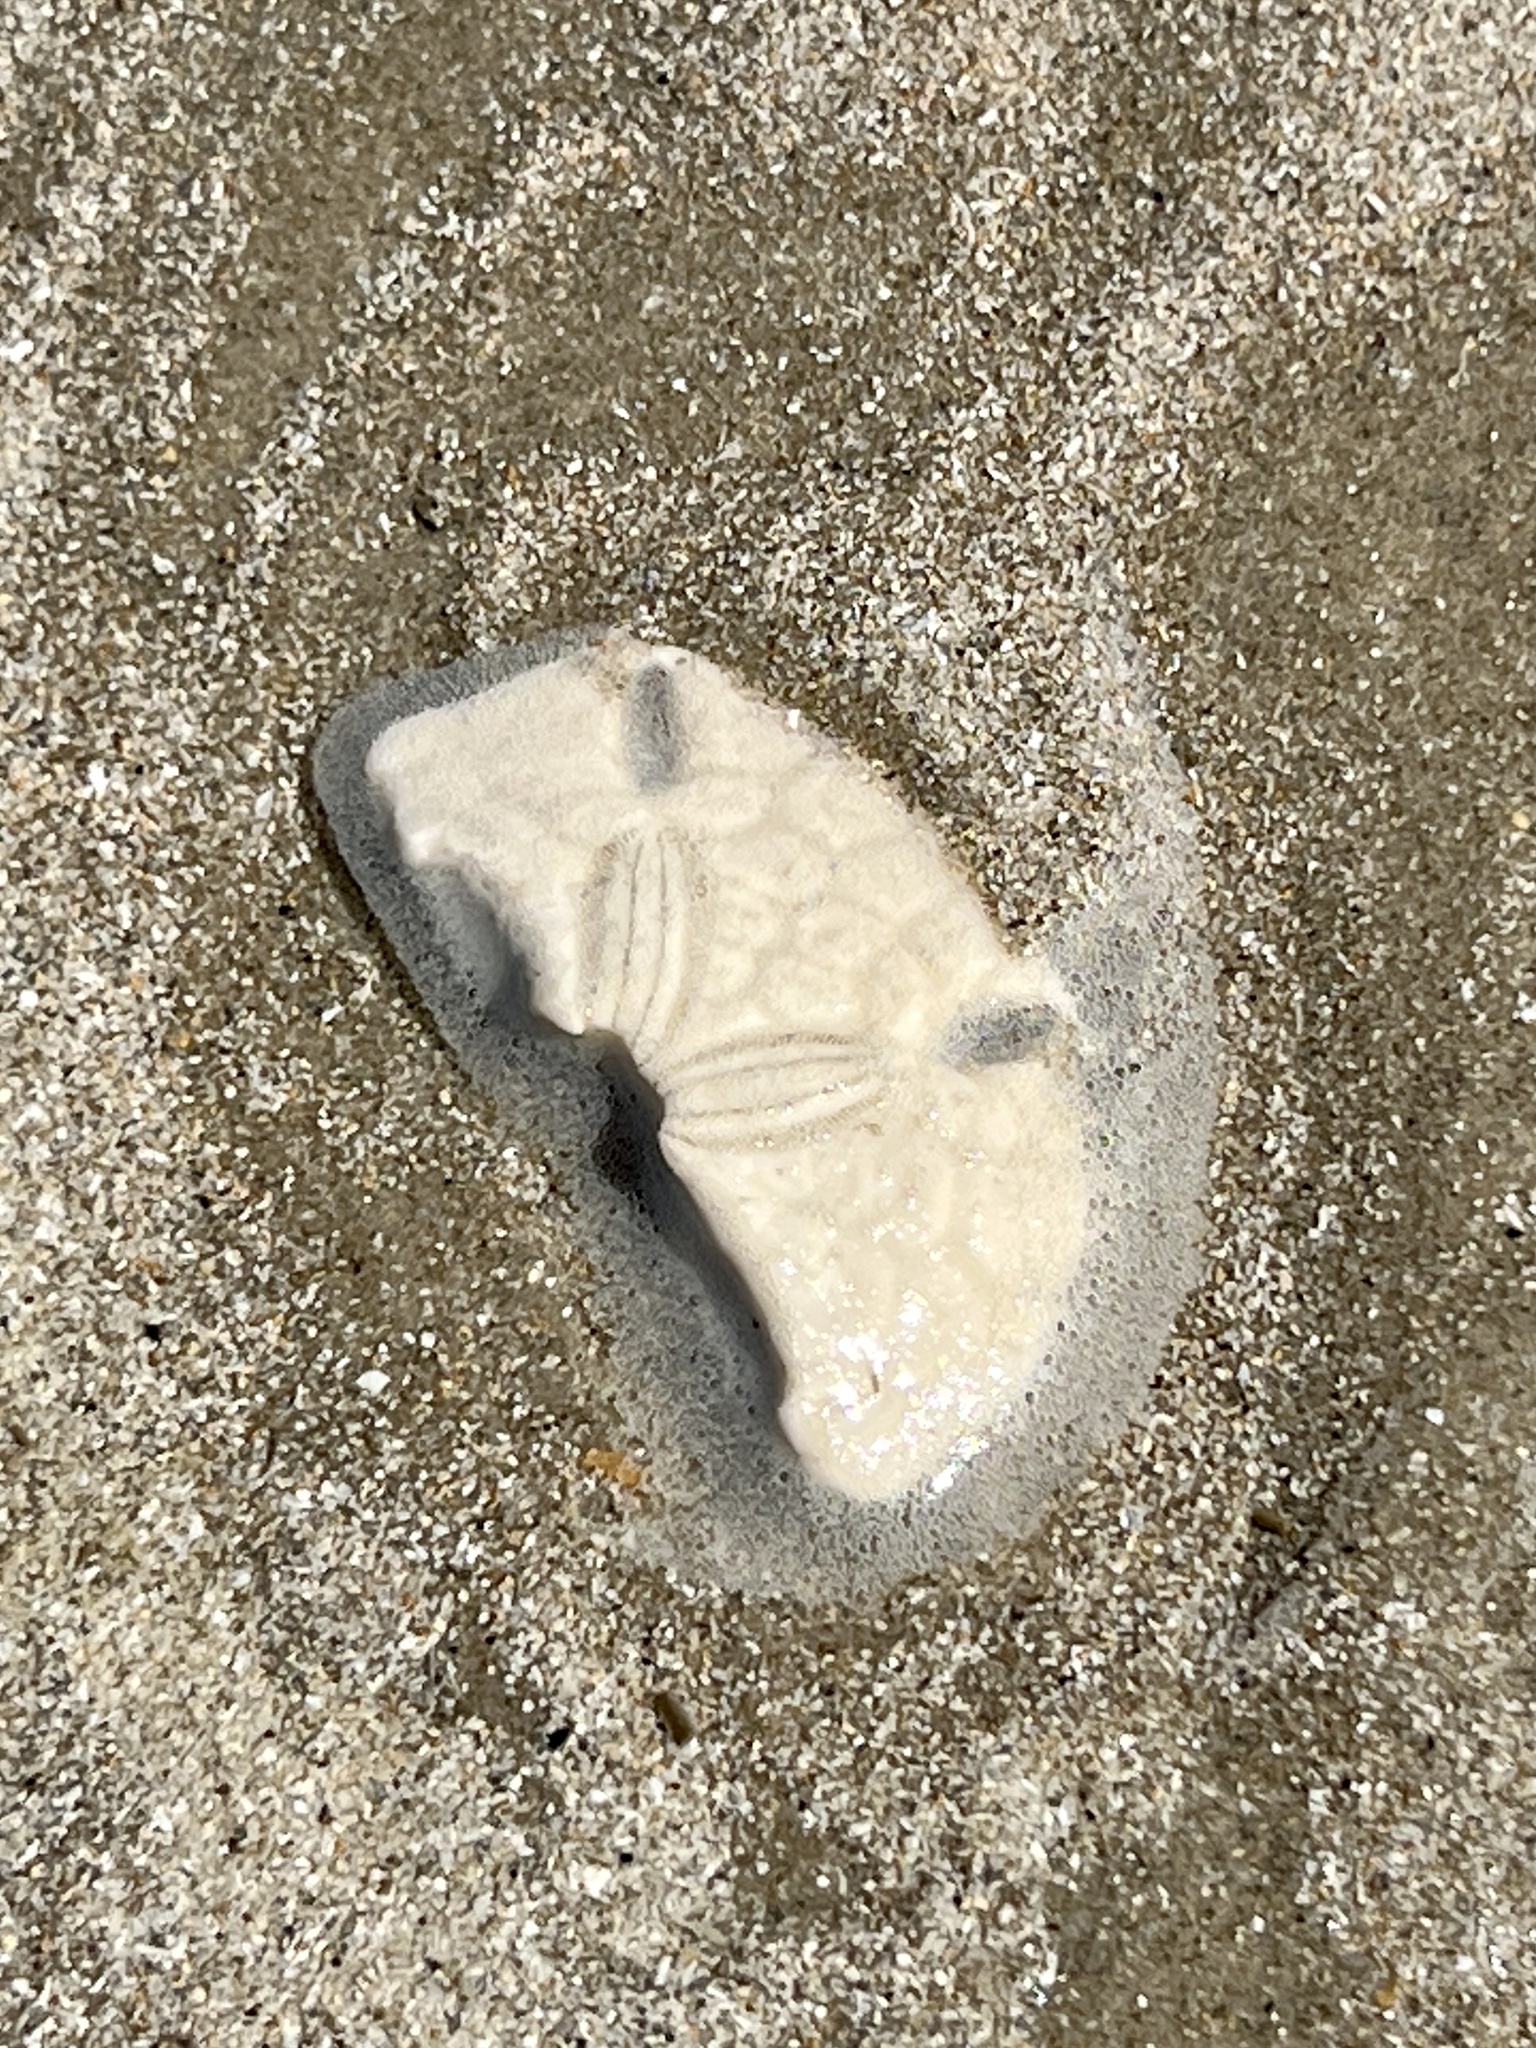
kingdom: Animalia
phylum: Echinodermata
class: Echinoidea
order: Echinolampadacea
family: Mellitidae
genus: Mellita
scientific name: Mellita quinquiesperforata
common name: Sand dollar
